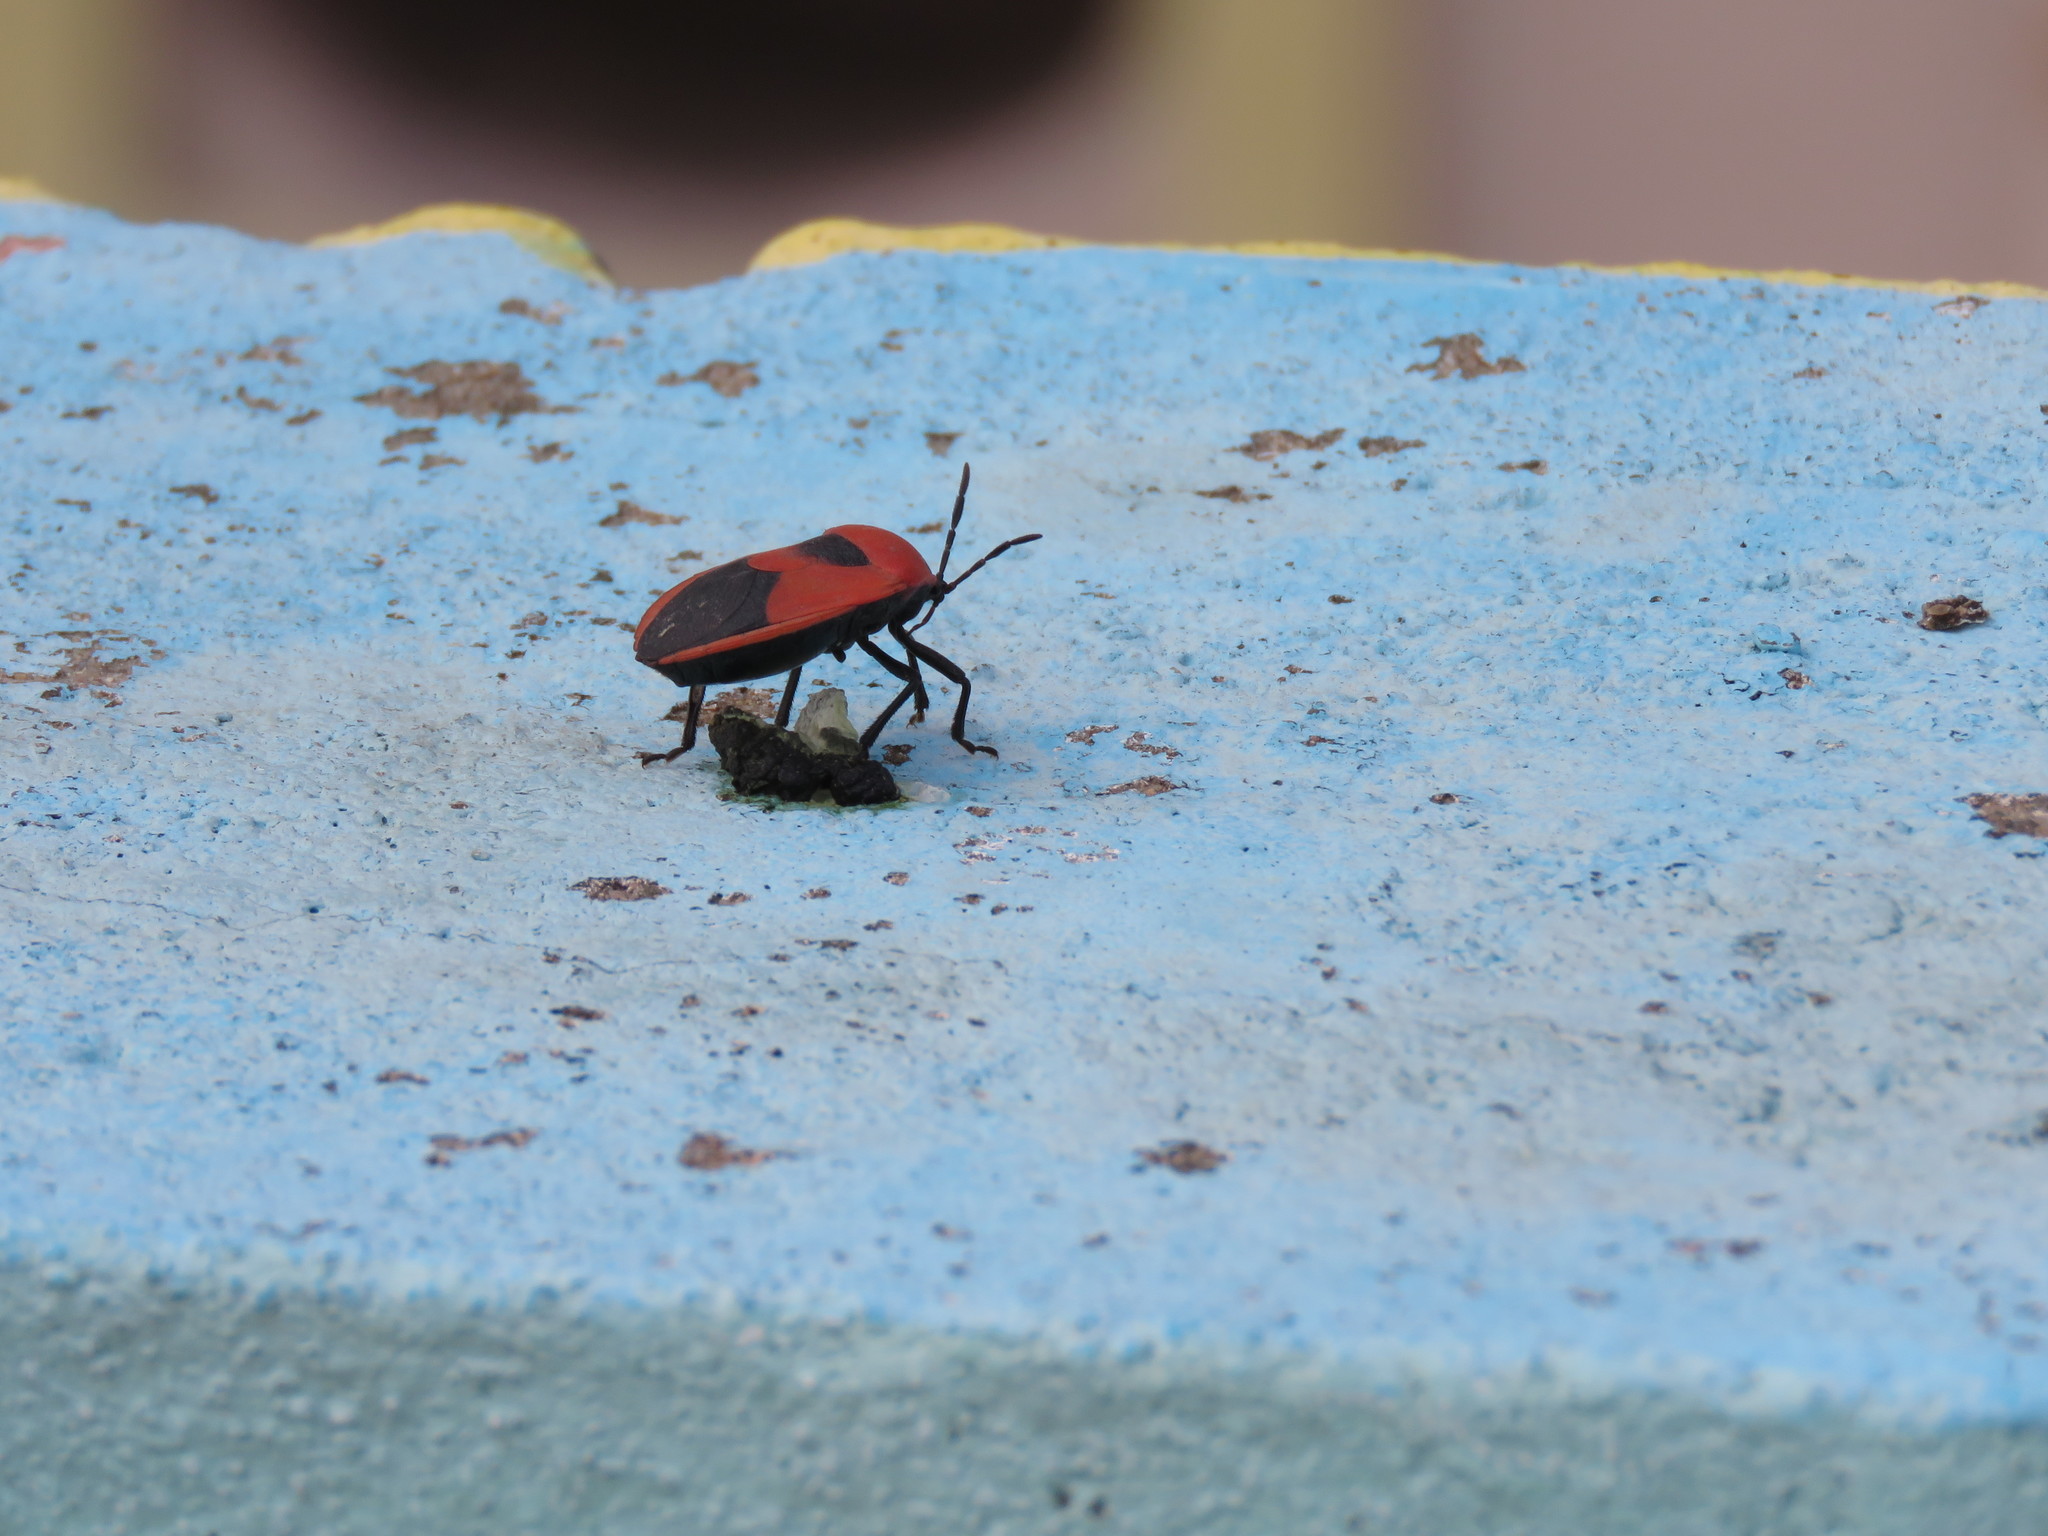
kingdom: Animalia
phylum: Arthropoda
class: Insecta
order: Hemiptera
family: Dinidoridae
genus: Coridius
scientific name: Coridius ianus
